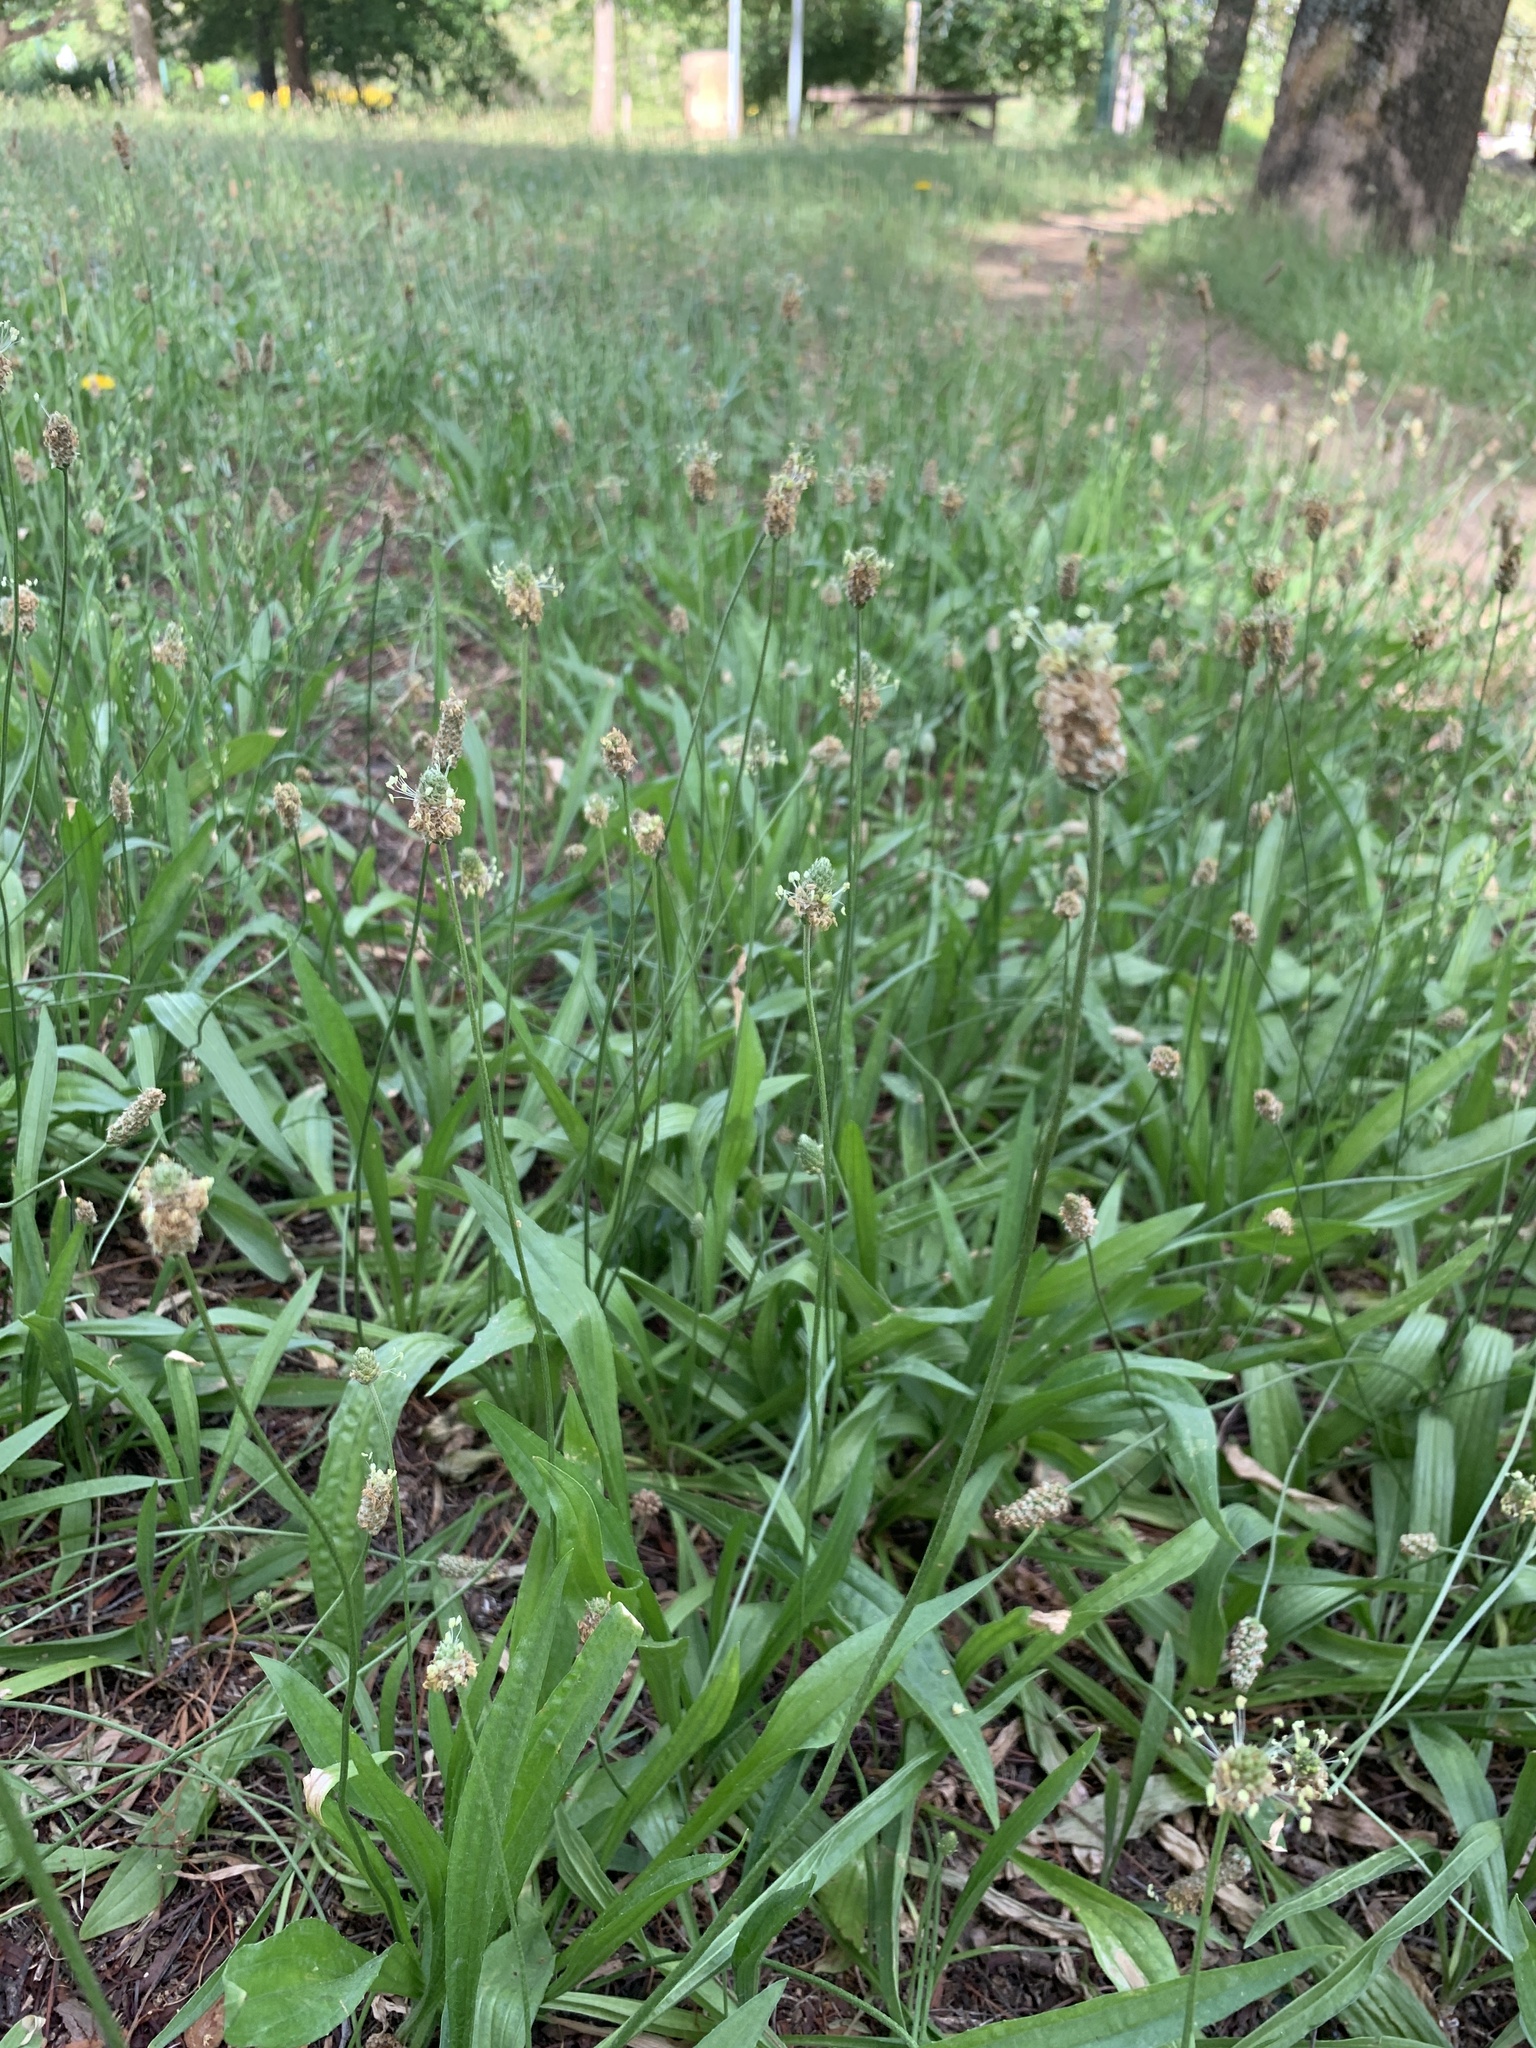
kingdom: Plantae
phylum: Tracheophyta
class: Magnoliopsida
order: Lamiales
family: Plantaginaceae
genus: Plantago
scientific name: Plantago lanceolata
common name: Ribwort plantain
